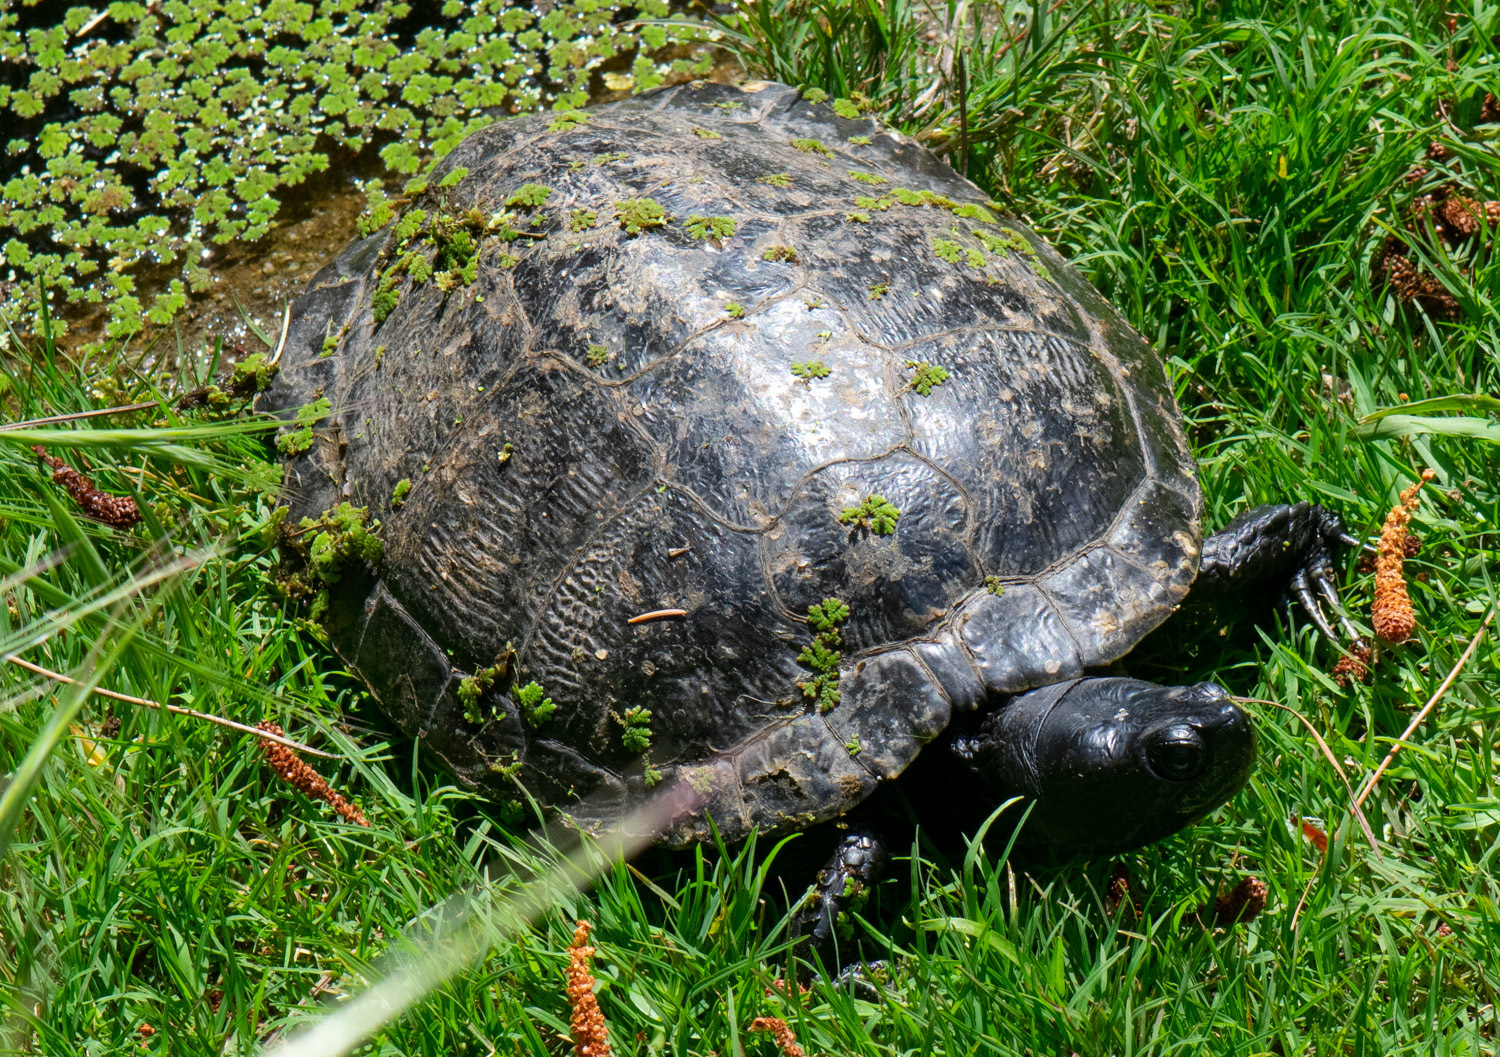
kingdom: Animalia
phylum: Chordata
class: Testudines
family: Emydidae
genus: Trachemys
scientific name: Trachemys scripta
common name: Slider
